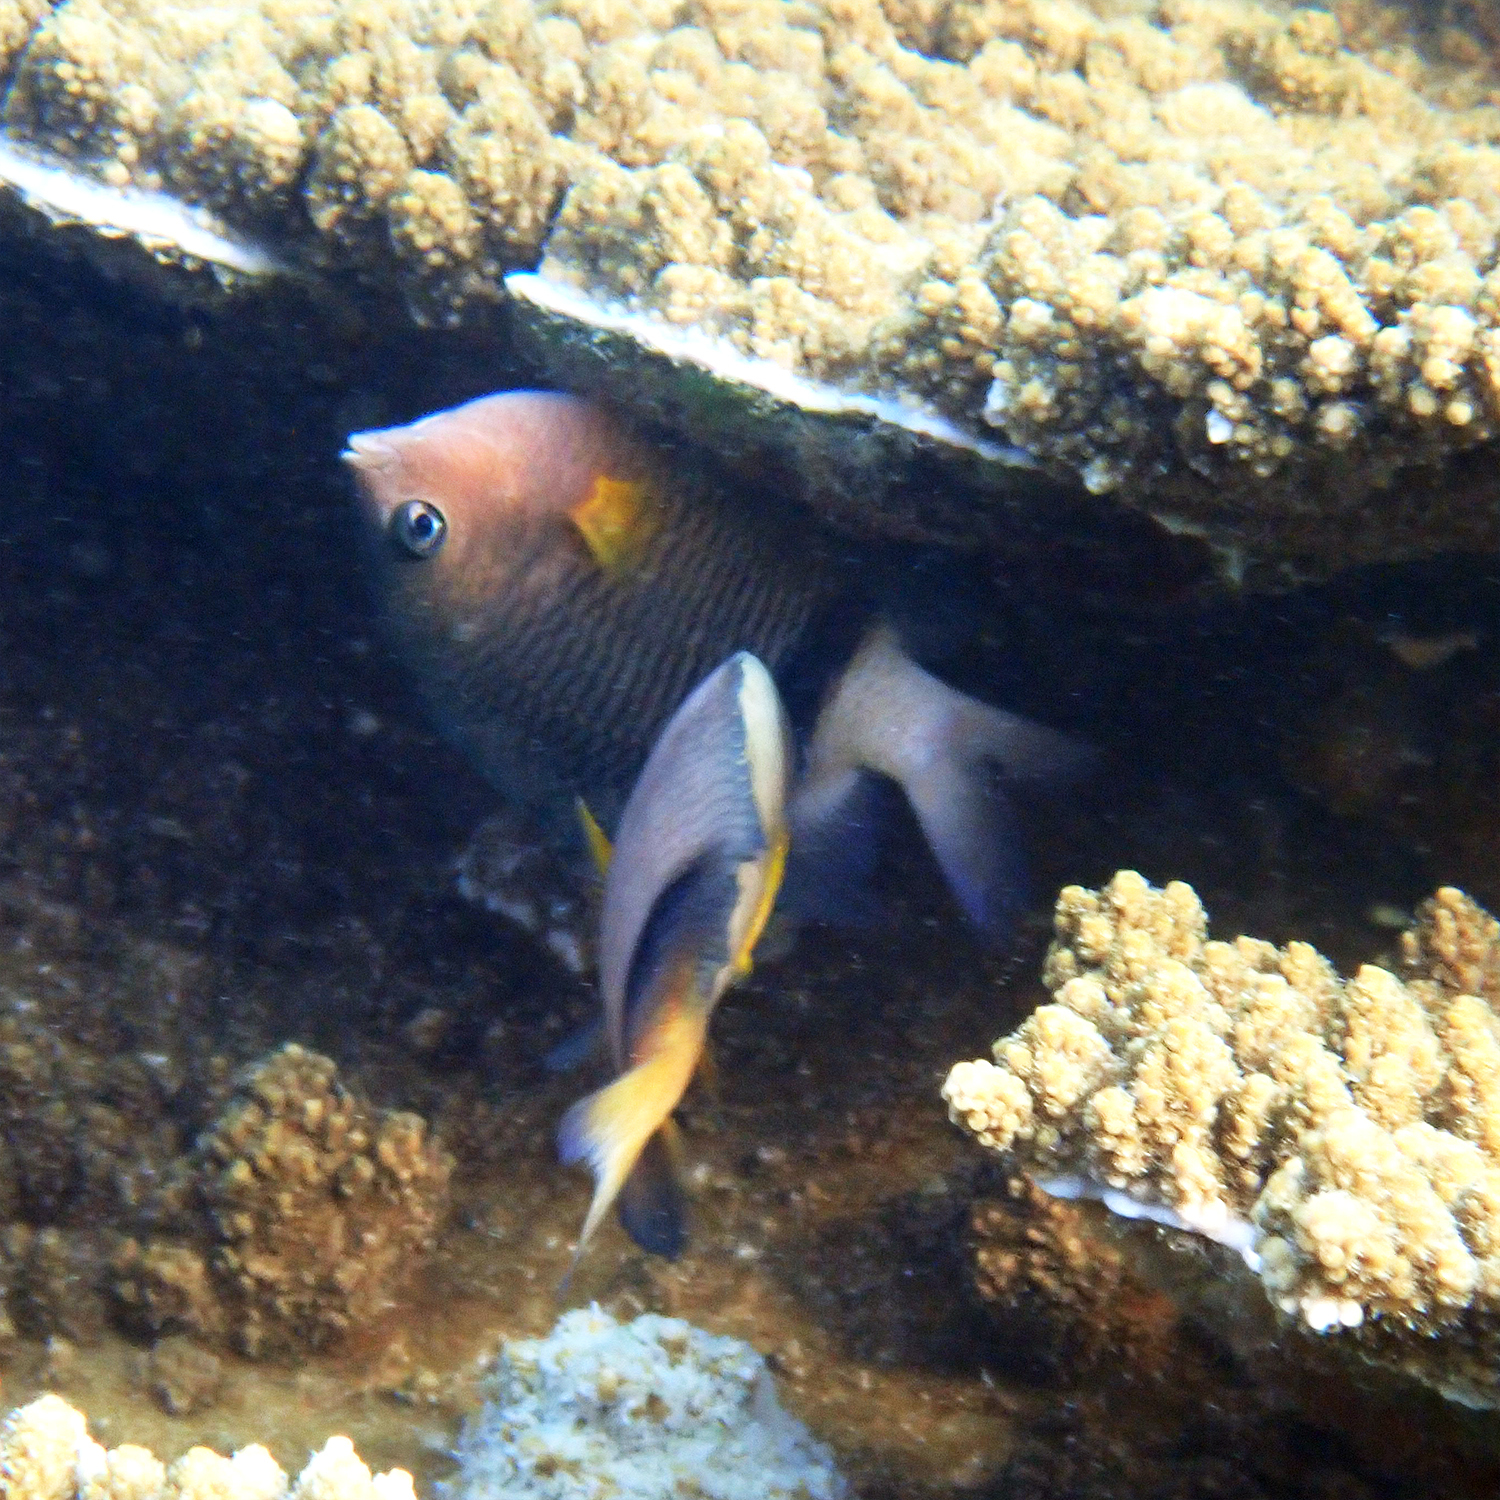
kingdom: Animalia
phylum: Chordata
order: Perciformes
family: Pomacentridae
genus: Plectroglyphidodon
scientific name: Plectroglyphidodon dickii
